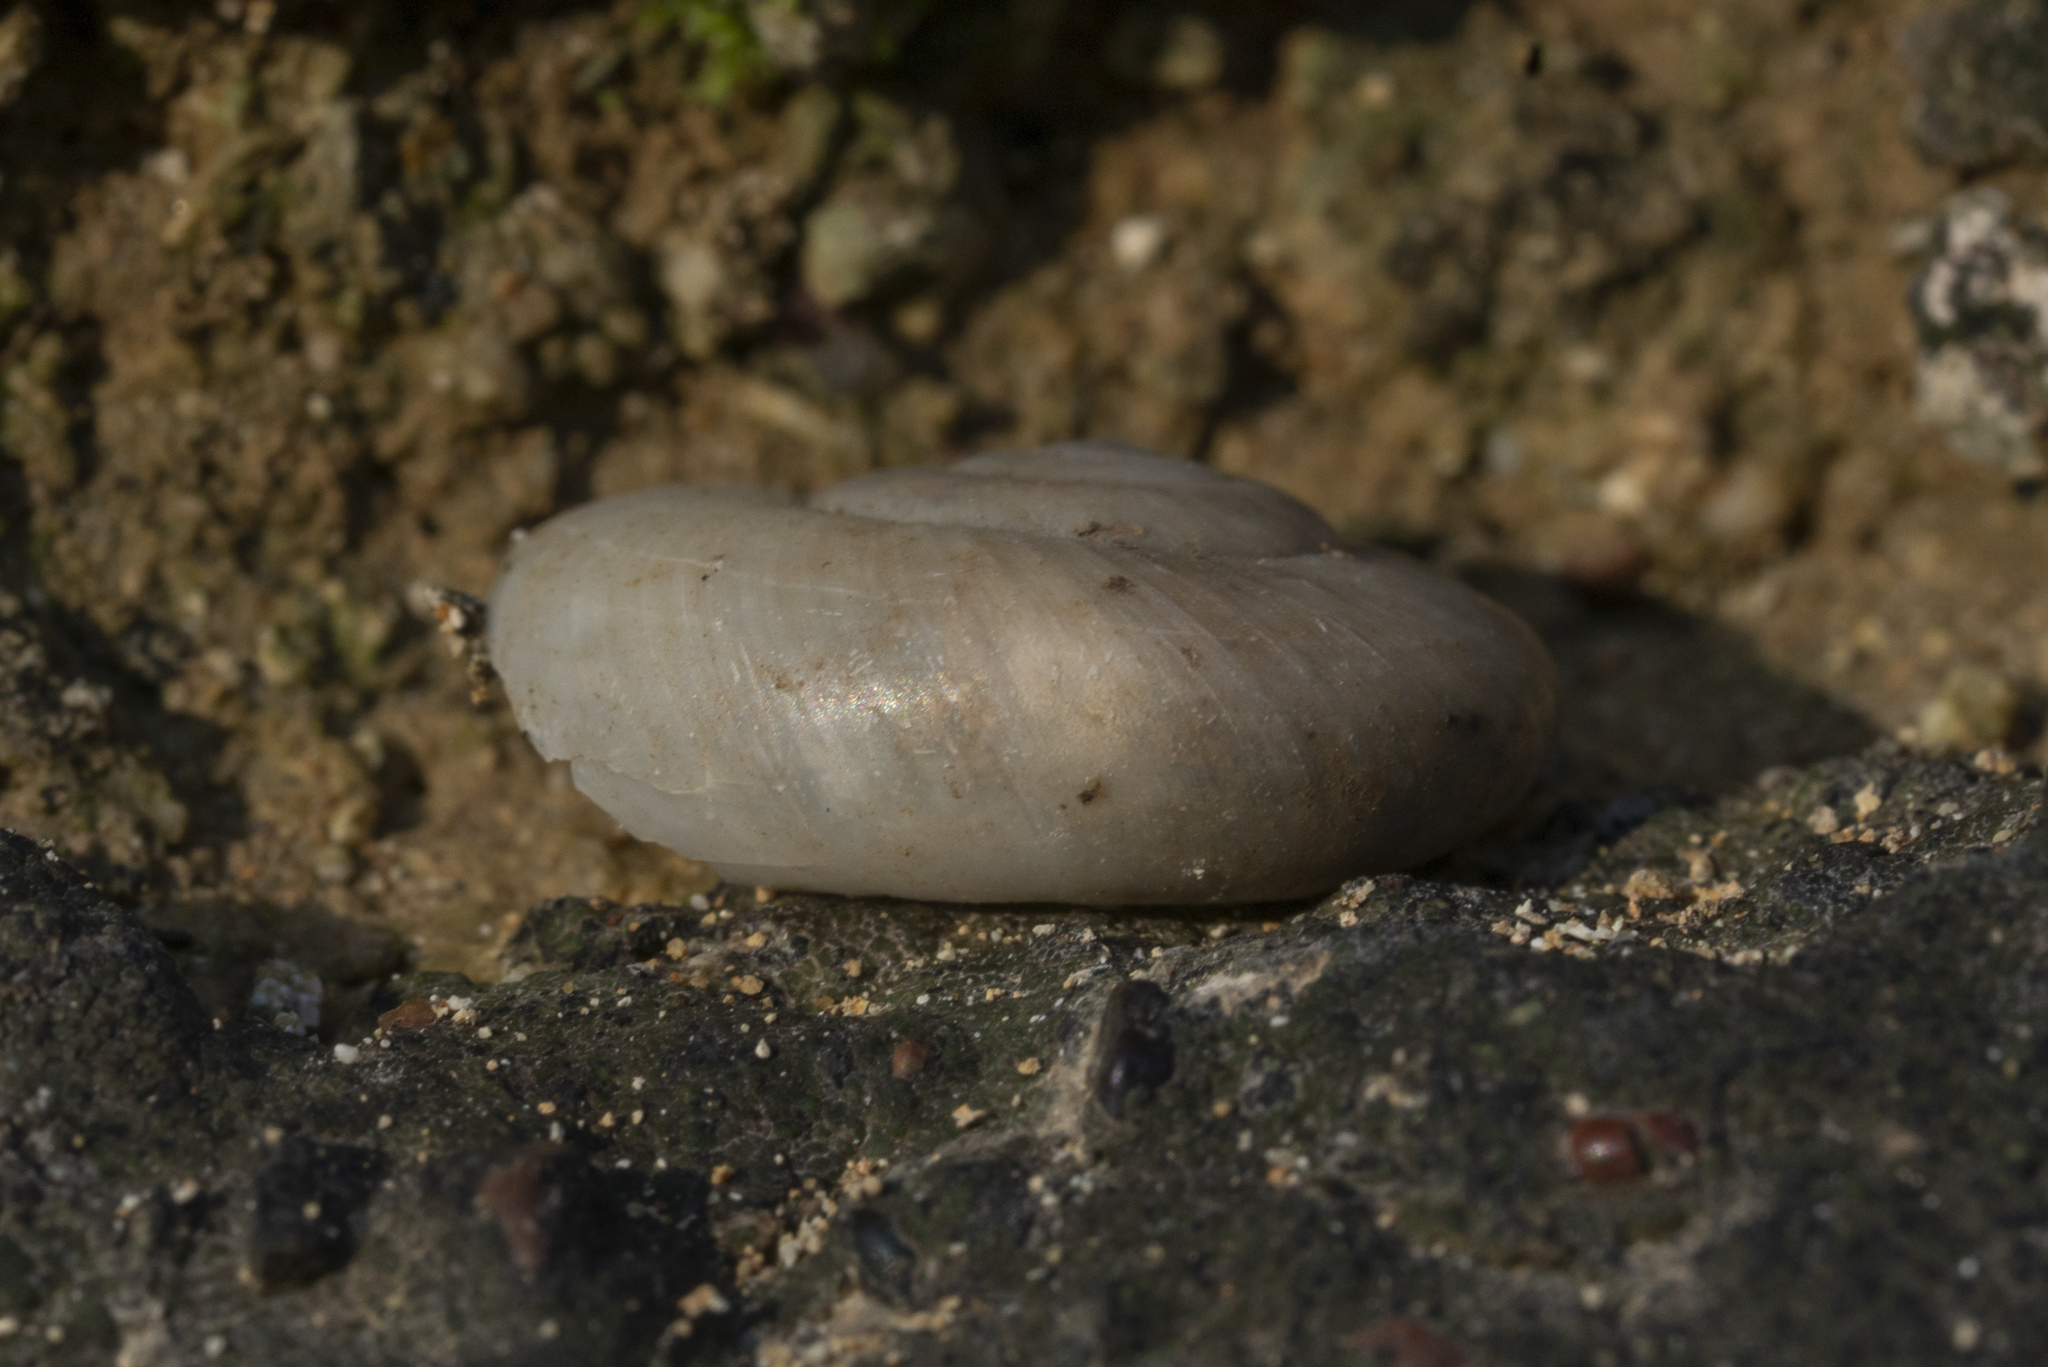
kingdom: Animalia
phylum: Mollusca
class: Gastropoda
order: Stylommatophora
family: Oxychilidae
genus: Eopolita
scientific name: Eopolita protensa
